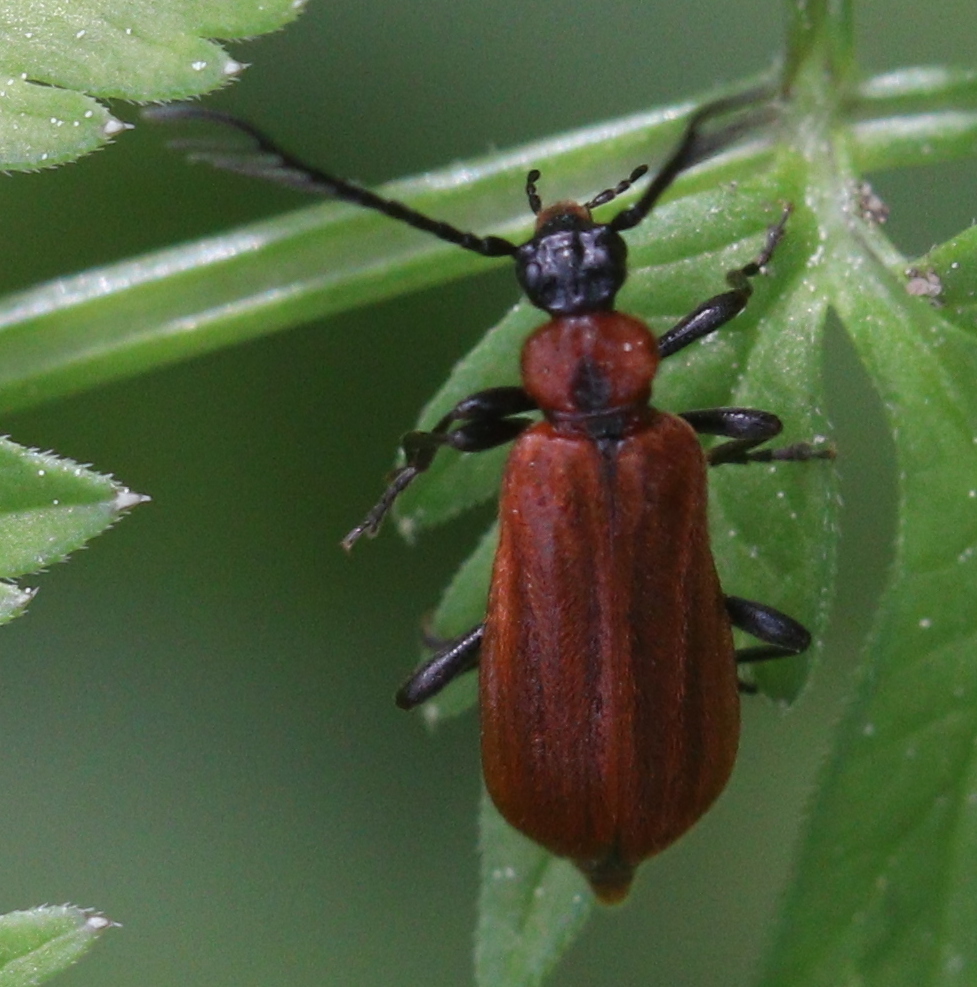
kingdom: Animalia
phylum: Arthropoda
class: Insecta
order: Coleoptera
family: Pyrochroidae
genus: Schizotus
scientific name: Schizotus pectinicornis
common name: Scarce cardinal beetle
